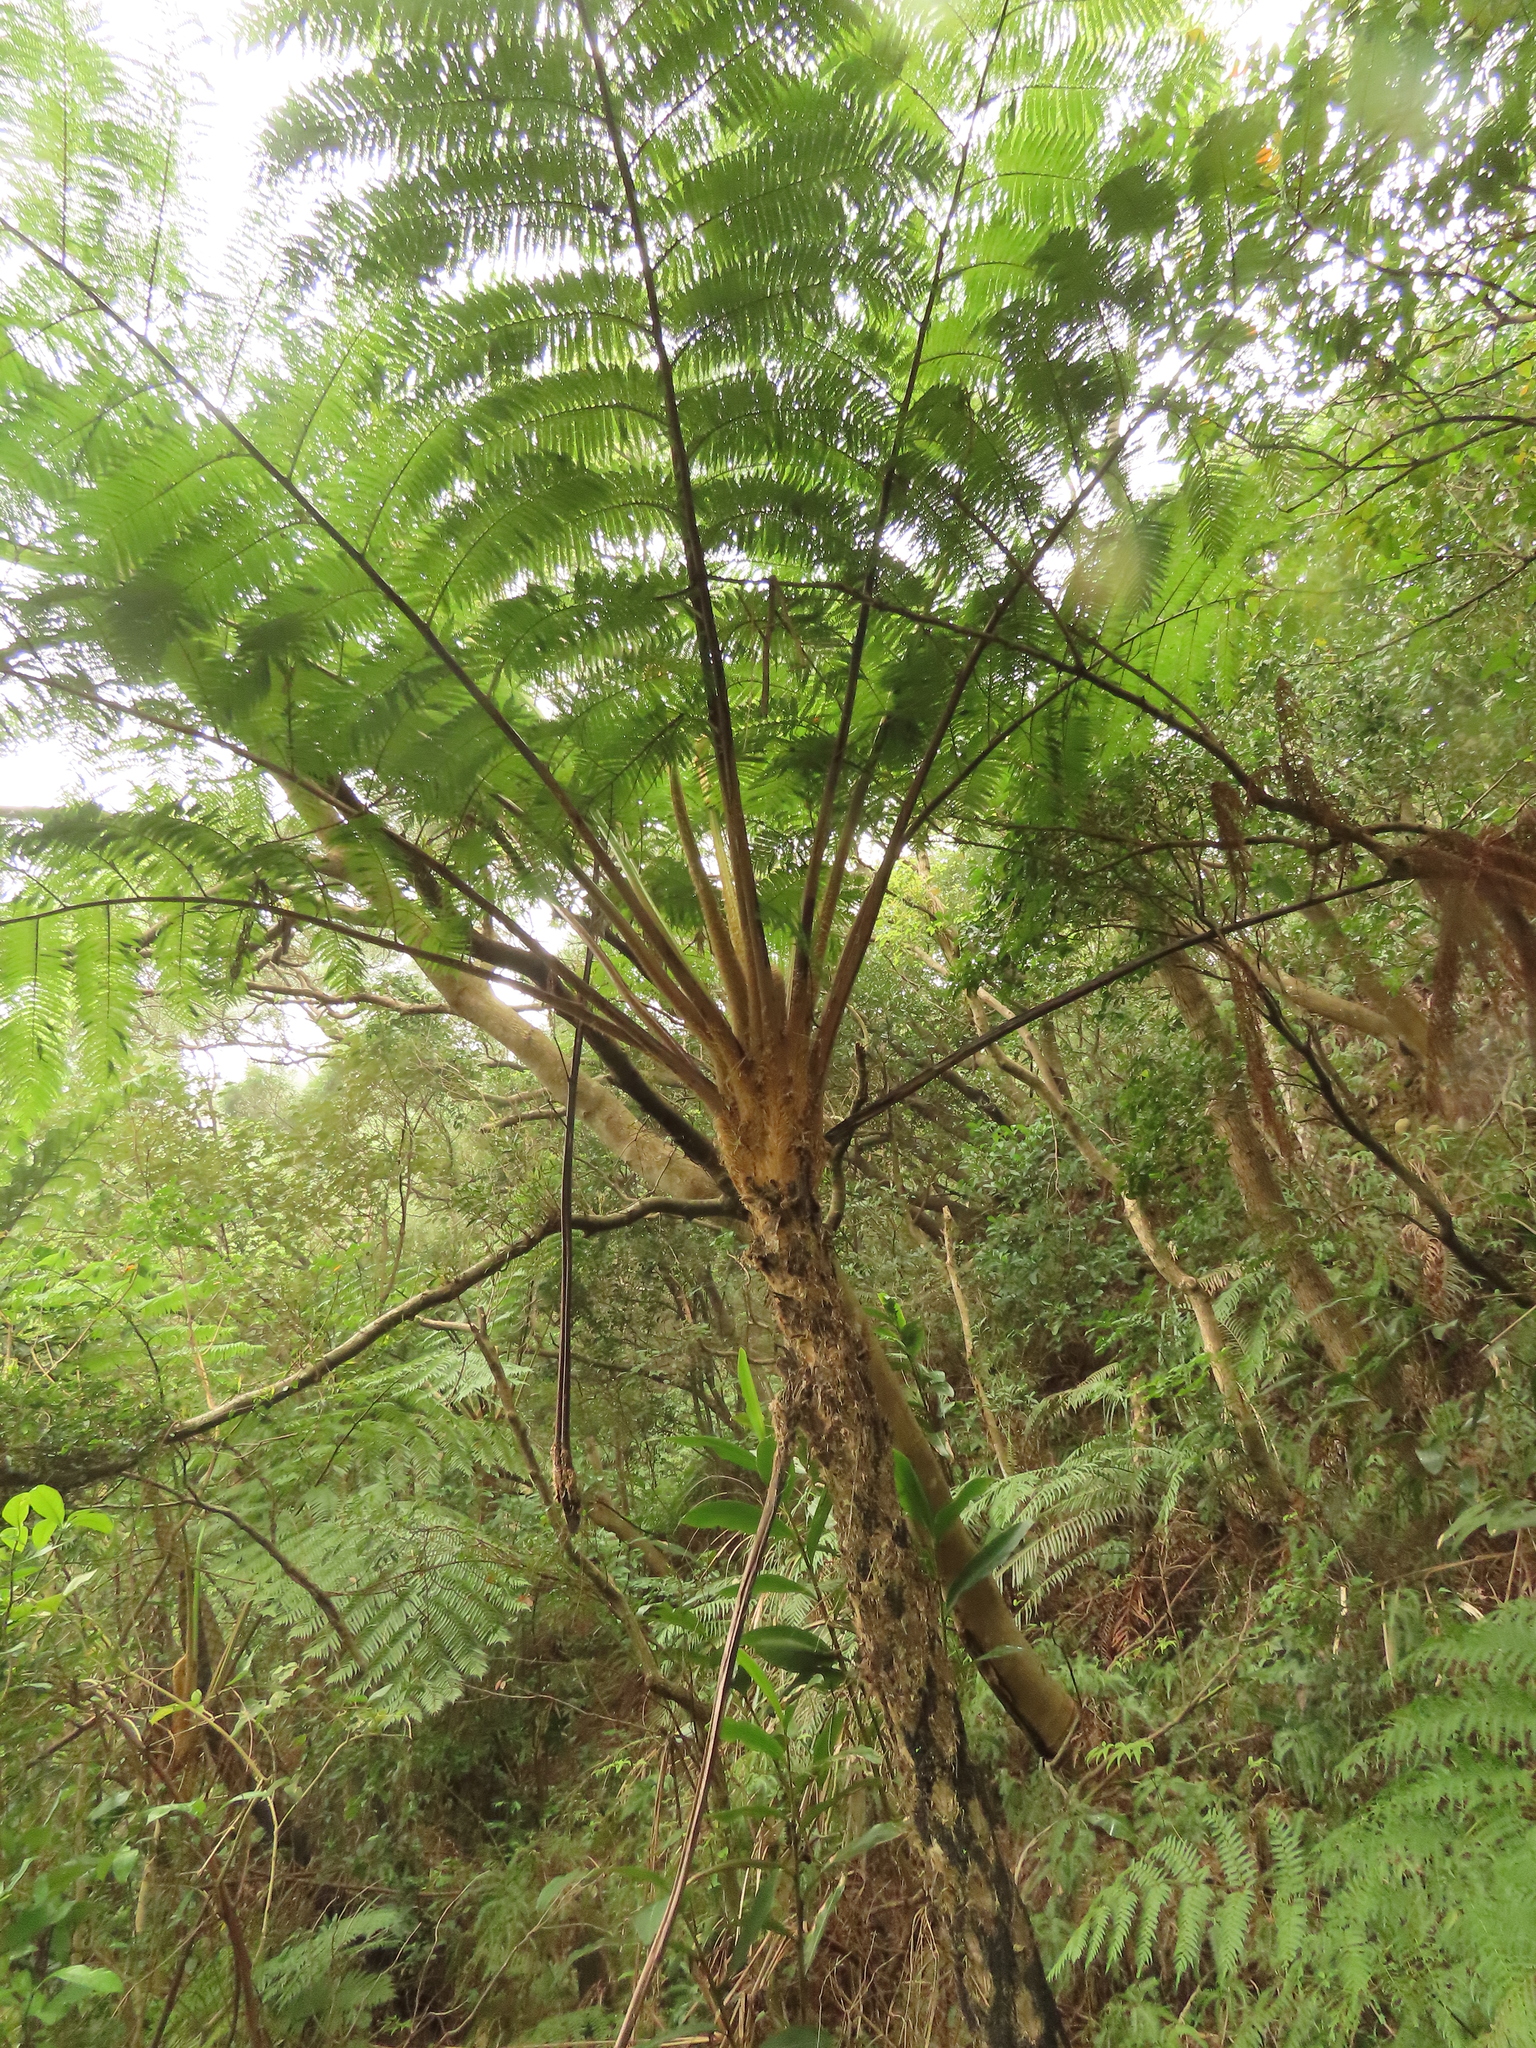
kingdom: Plantae
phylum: Tracheophyta
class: Polypodiopsida
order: Cyatheales
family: Cyatheaceae
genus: Alsophila
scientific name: Alsophila lepifera
